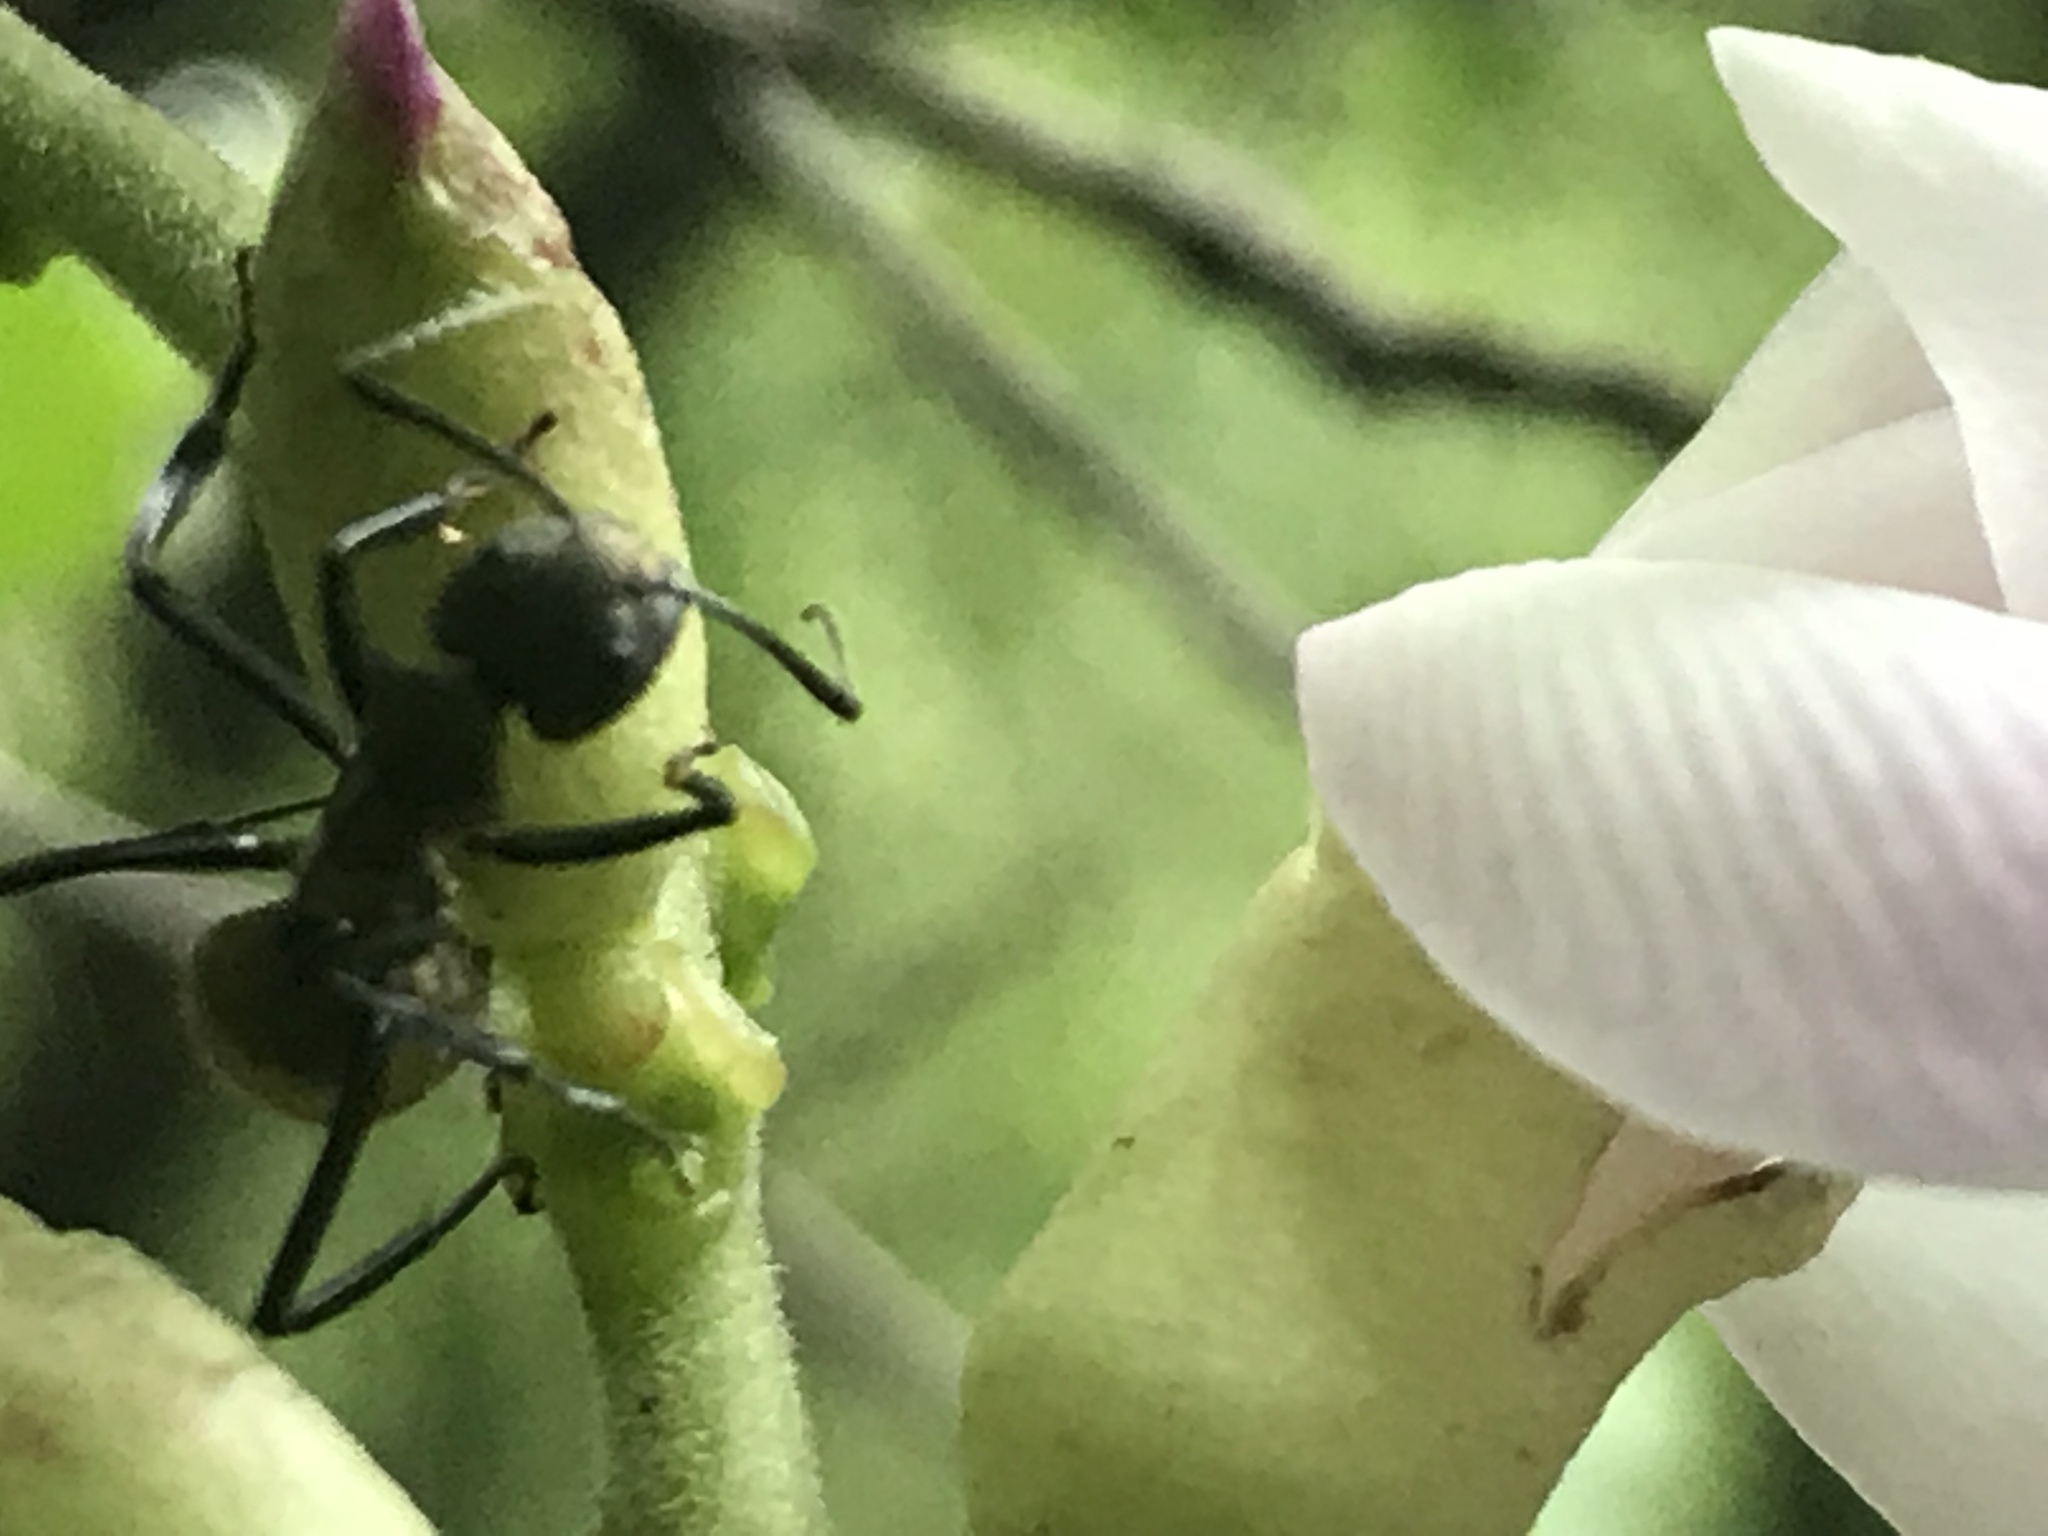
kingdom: Animalia
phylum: Arthropoda
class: Insecta
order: Hymenoptera
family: Formicidae
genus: Camponotus
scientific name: Camponotus sericeiventris
